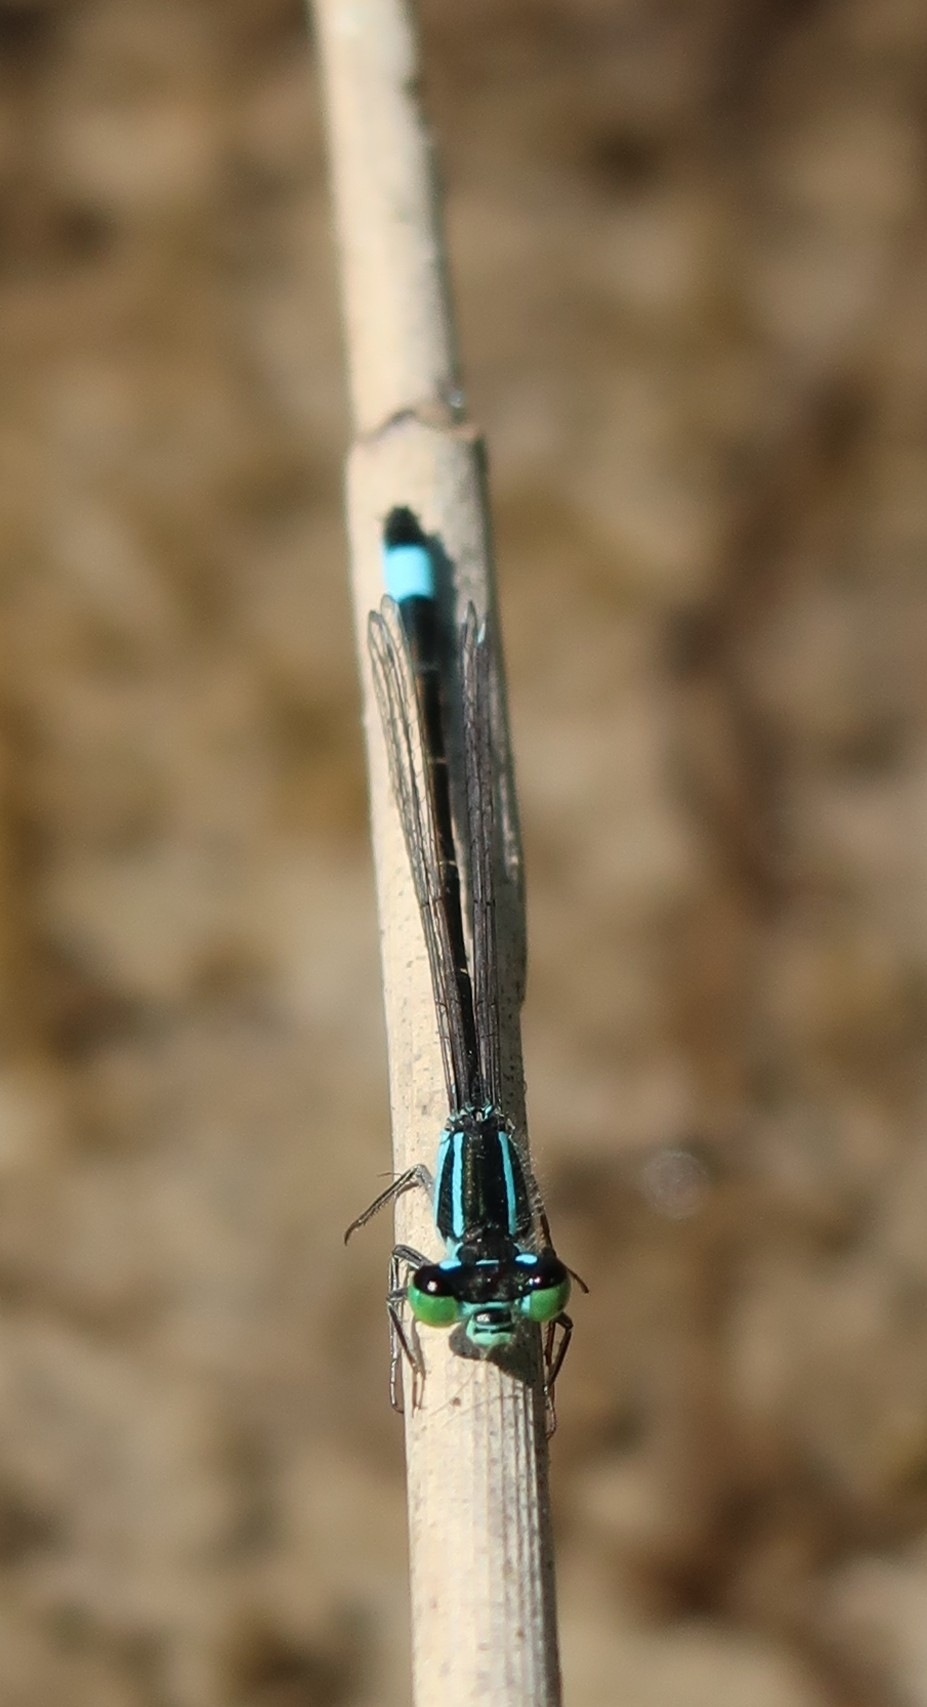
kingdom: Animalia
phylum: Arthropoda
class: Insecta
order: Odonata
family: Coenagrionidae
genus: Ischnura
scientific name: Ischnura elegans
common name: Blue-tailed damselfly
